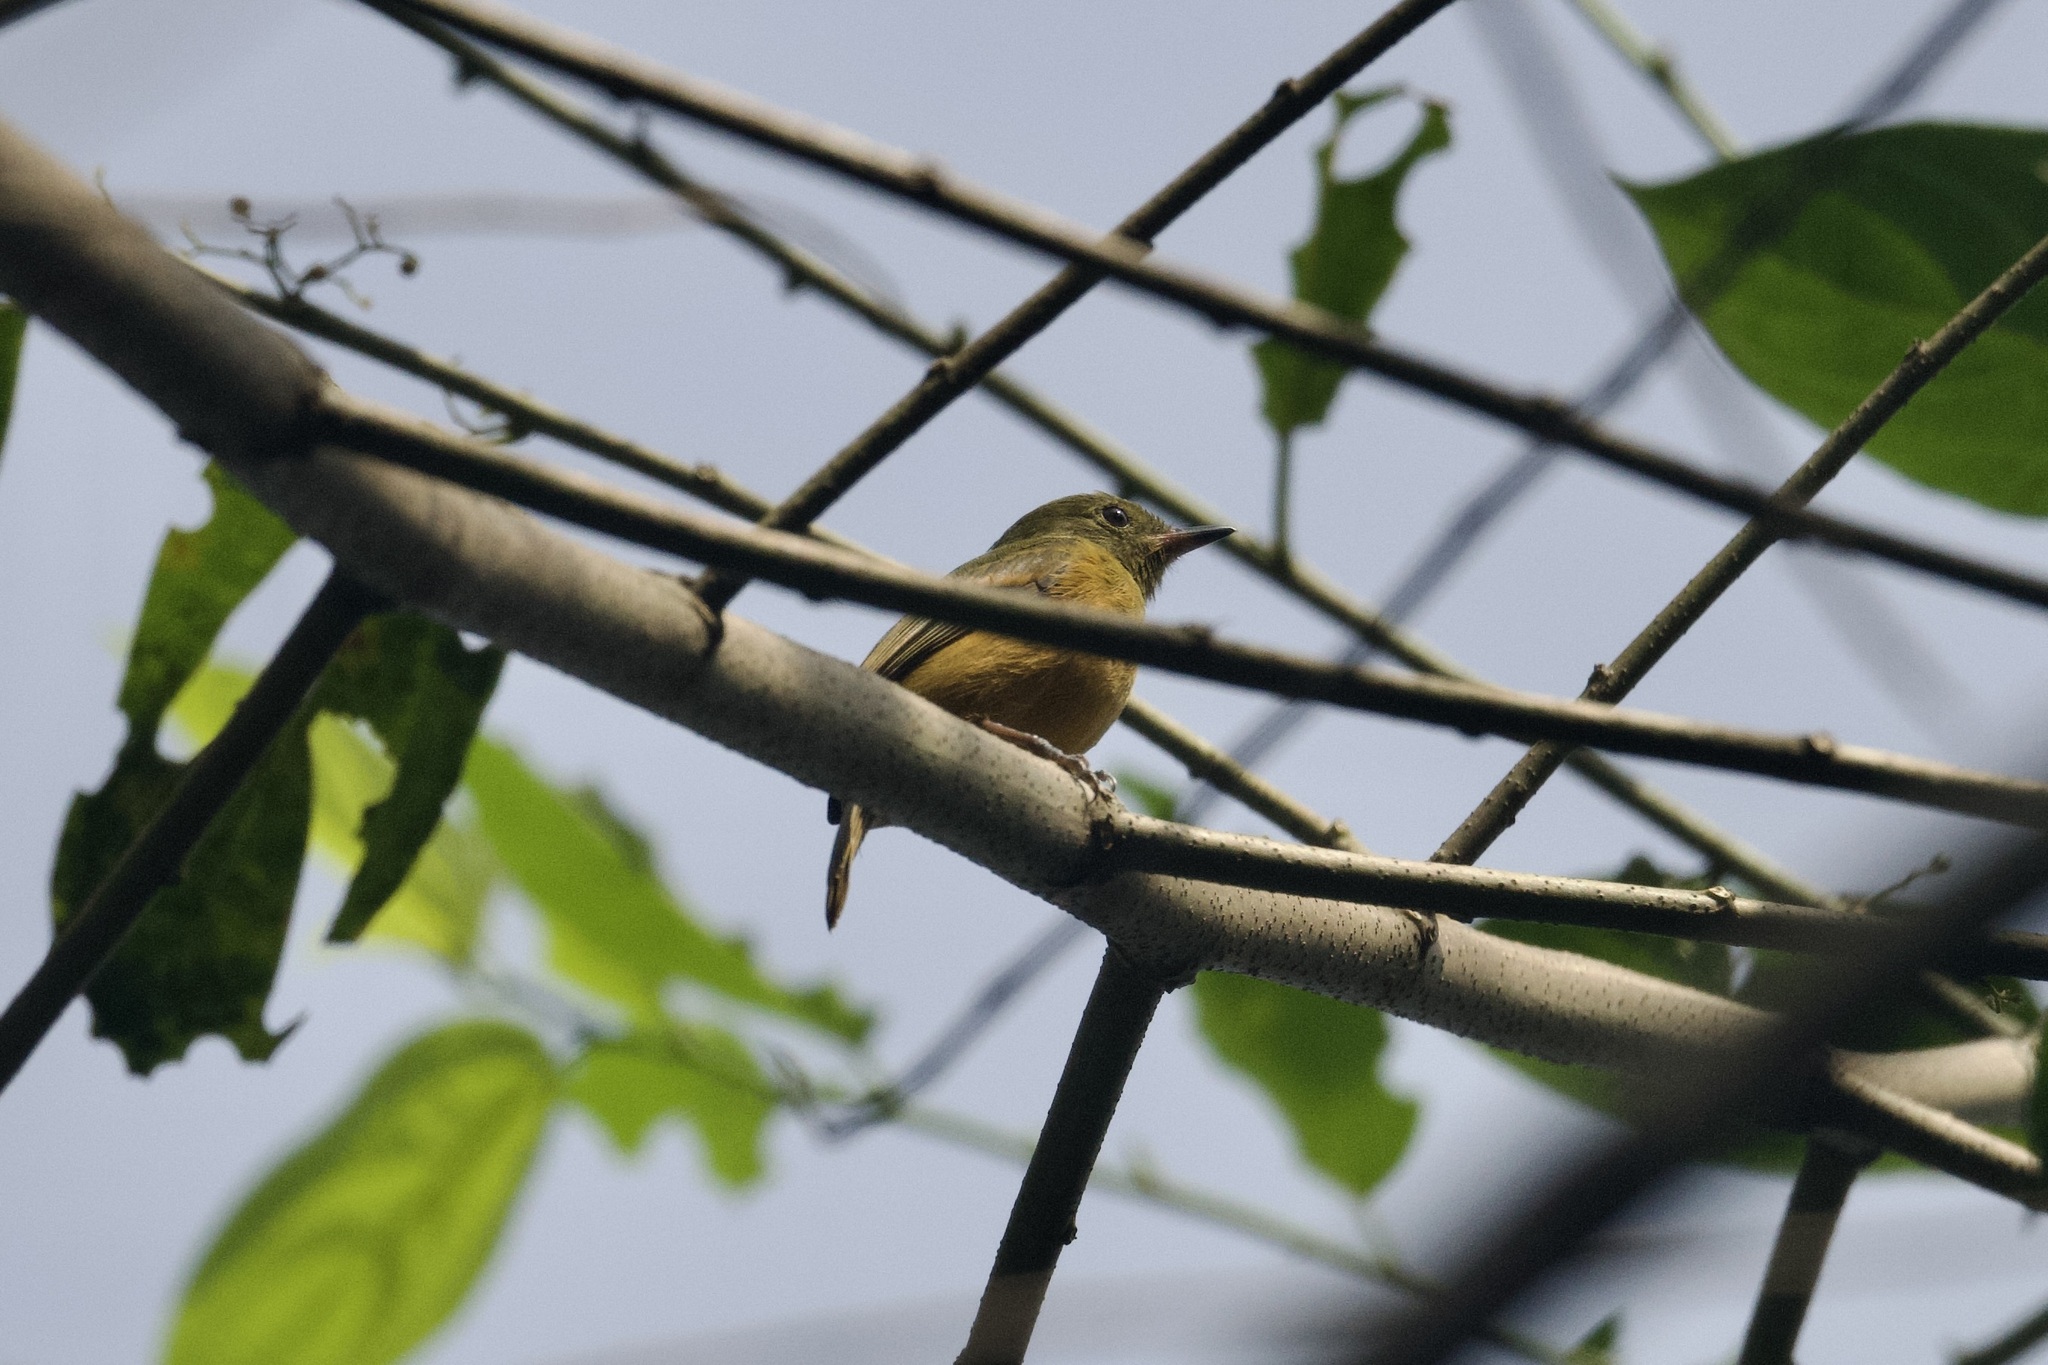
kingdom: Animalia
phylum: Chordata
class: Aves
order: Passeriformes
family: Tyrannidae
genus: Mionectes
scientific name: Mionectes oleagineus
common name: Ochre-bellied flycatcher
